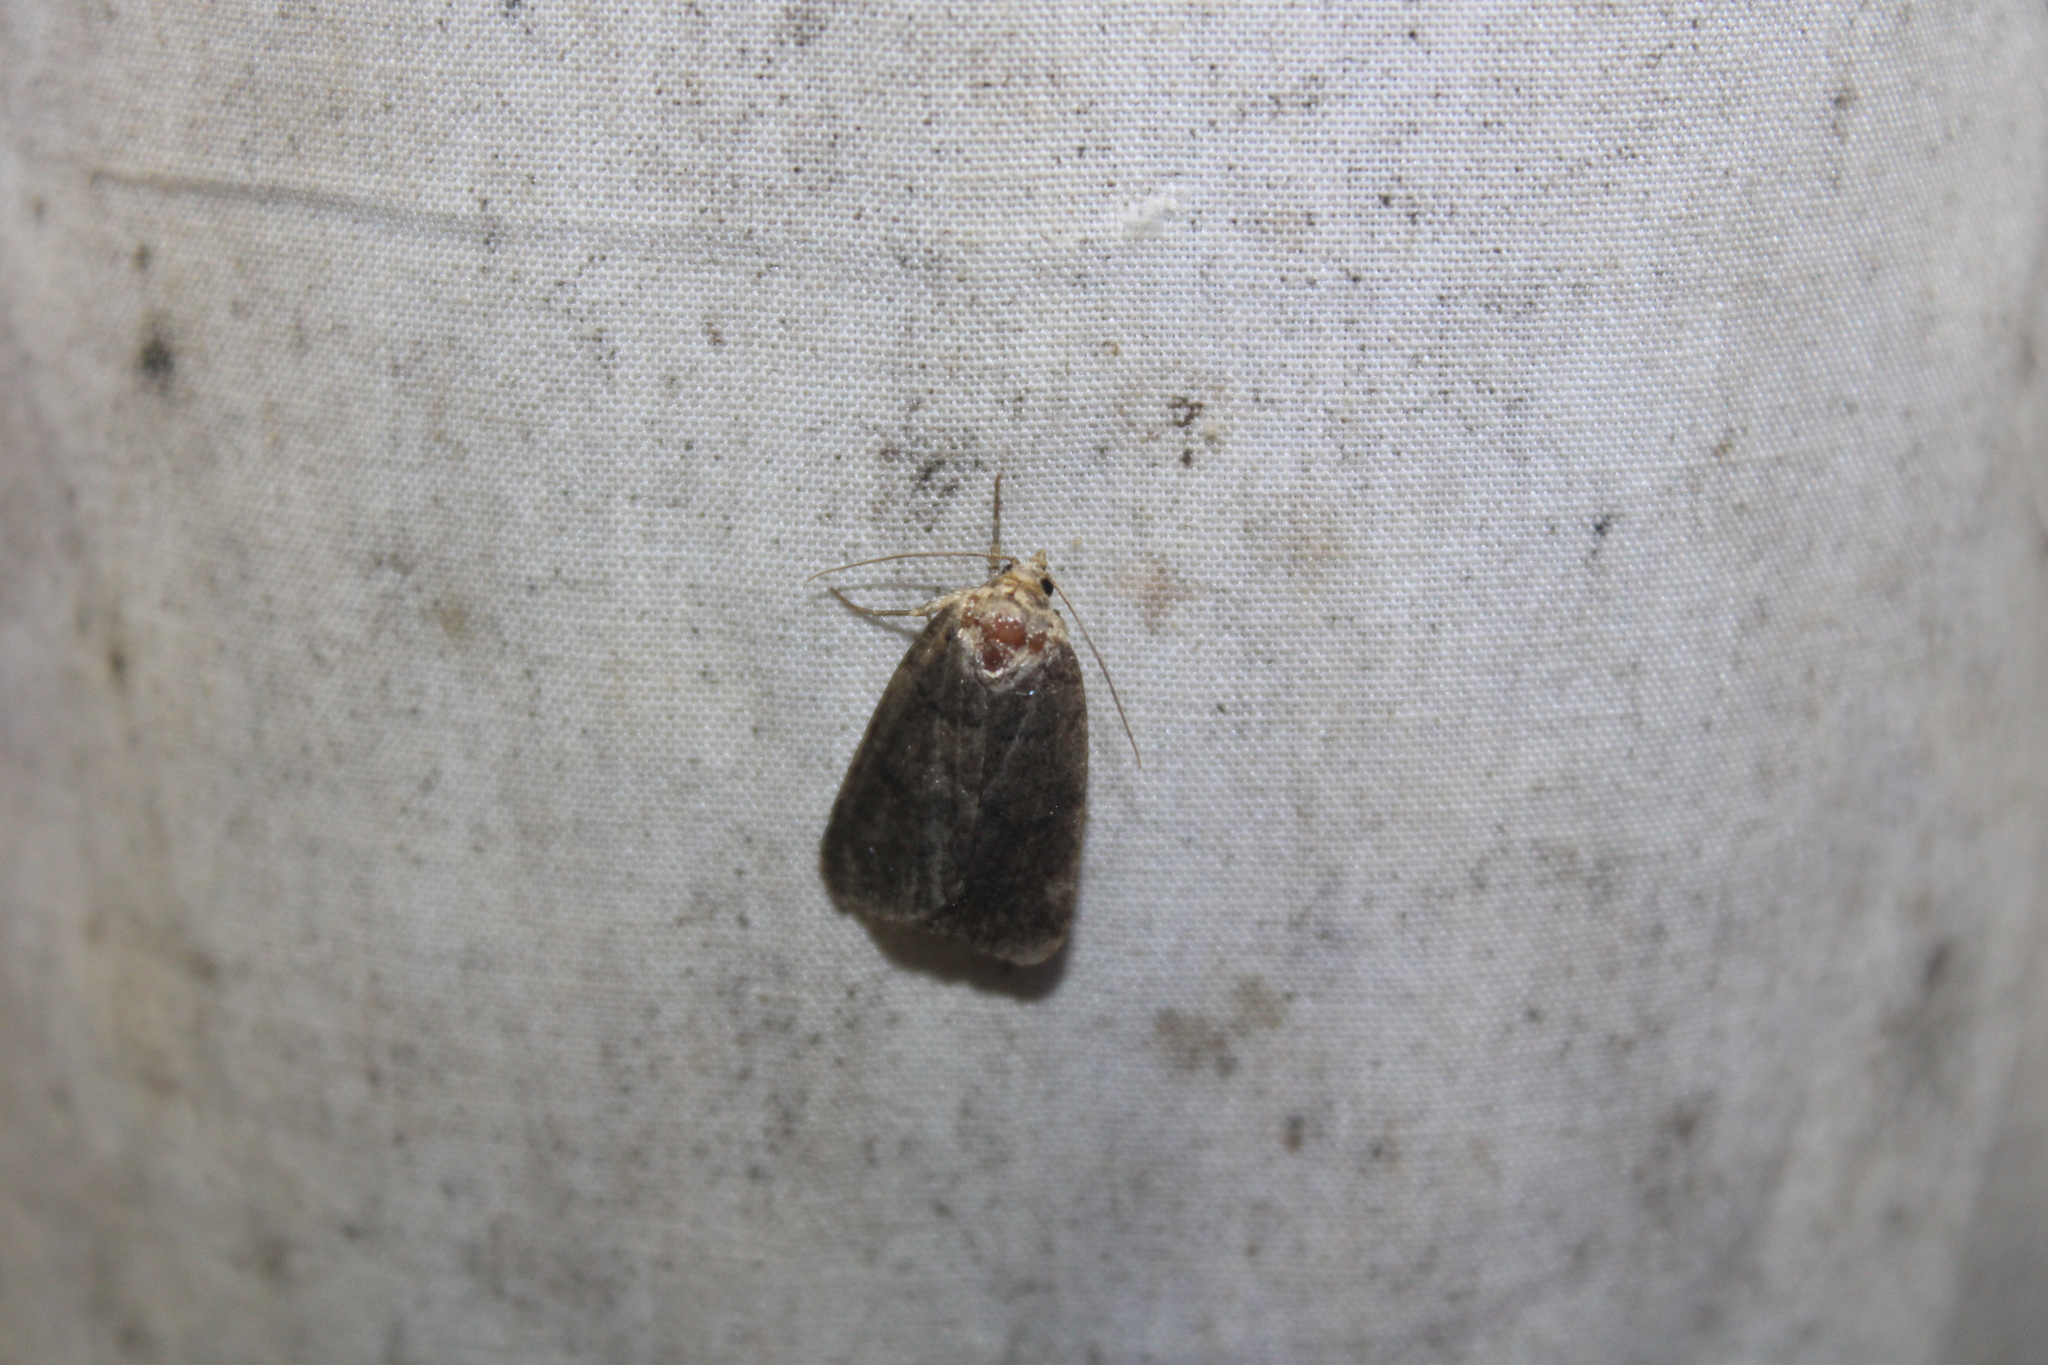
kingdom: Animalia
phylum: Arthropoda
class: Insecta
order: Lepidoptera
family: Noctuidae
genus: Athetis
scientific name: Athetis tarda
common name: Slowpoke moth
